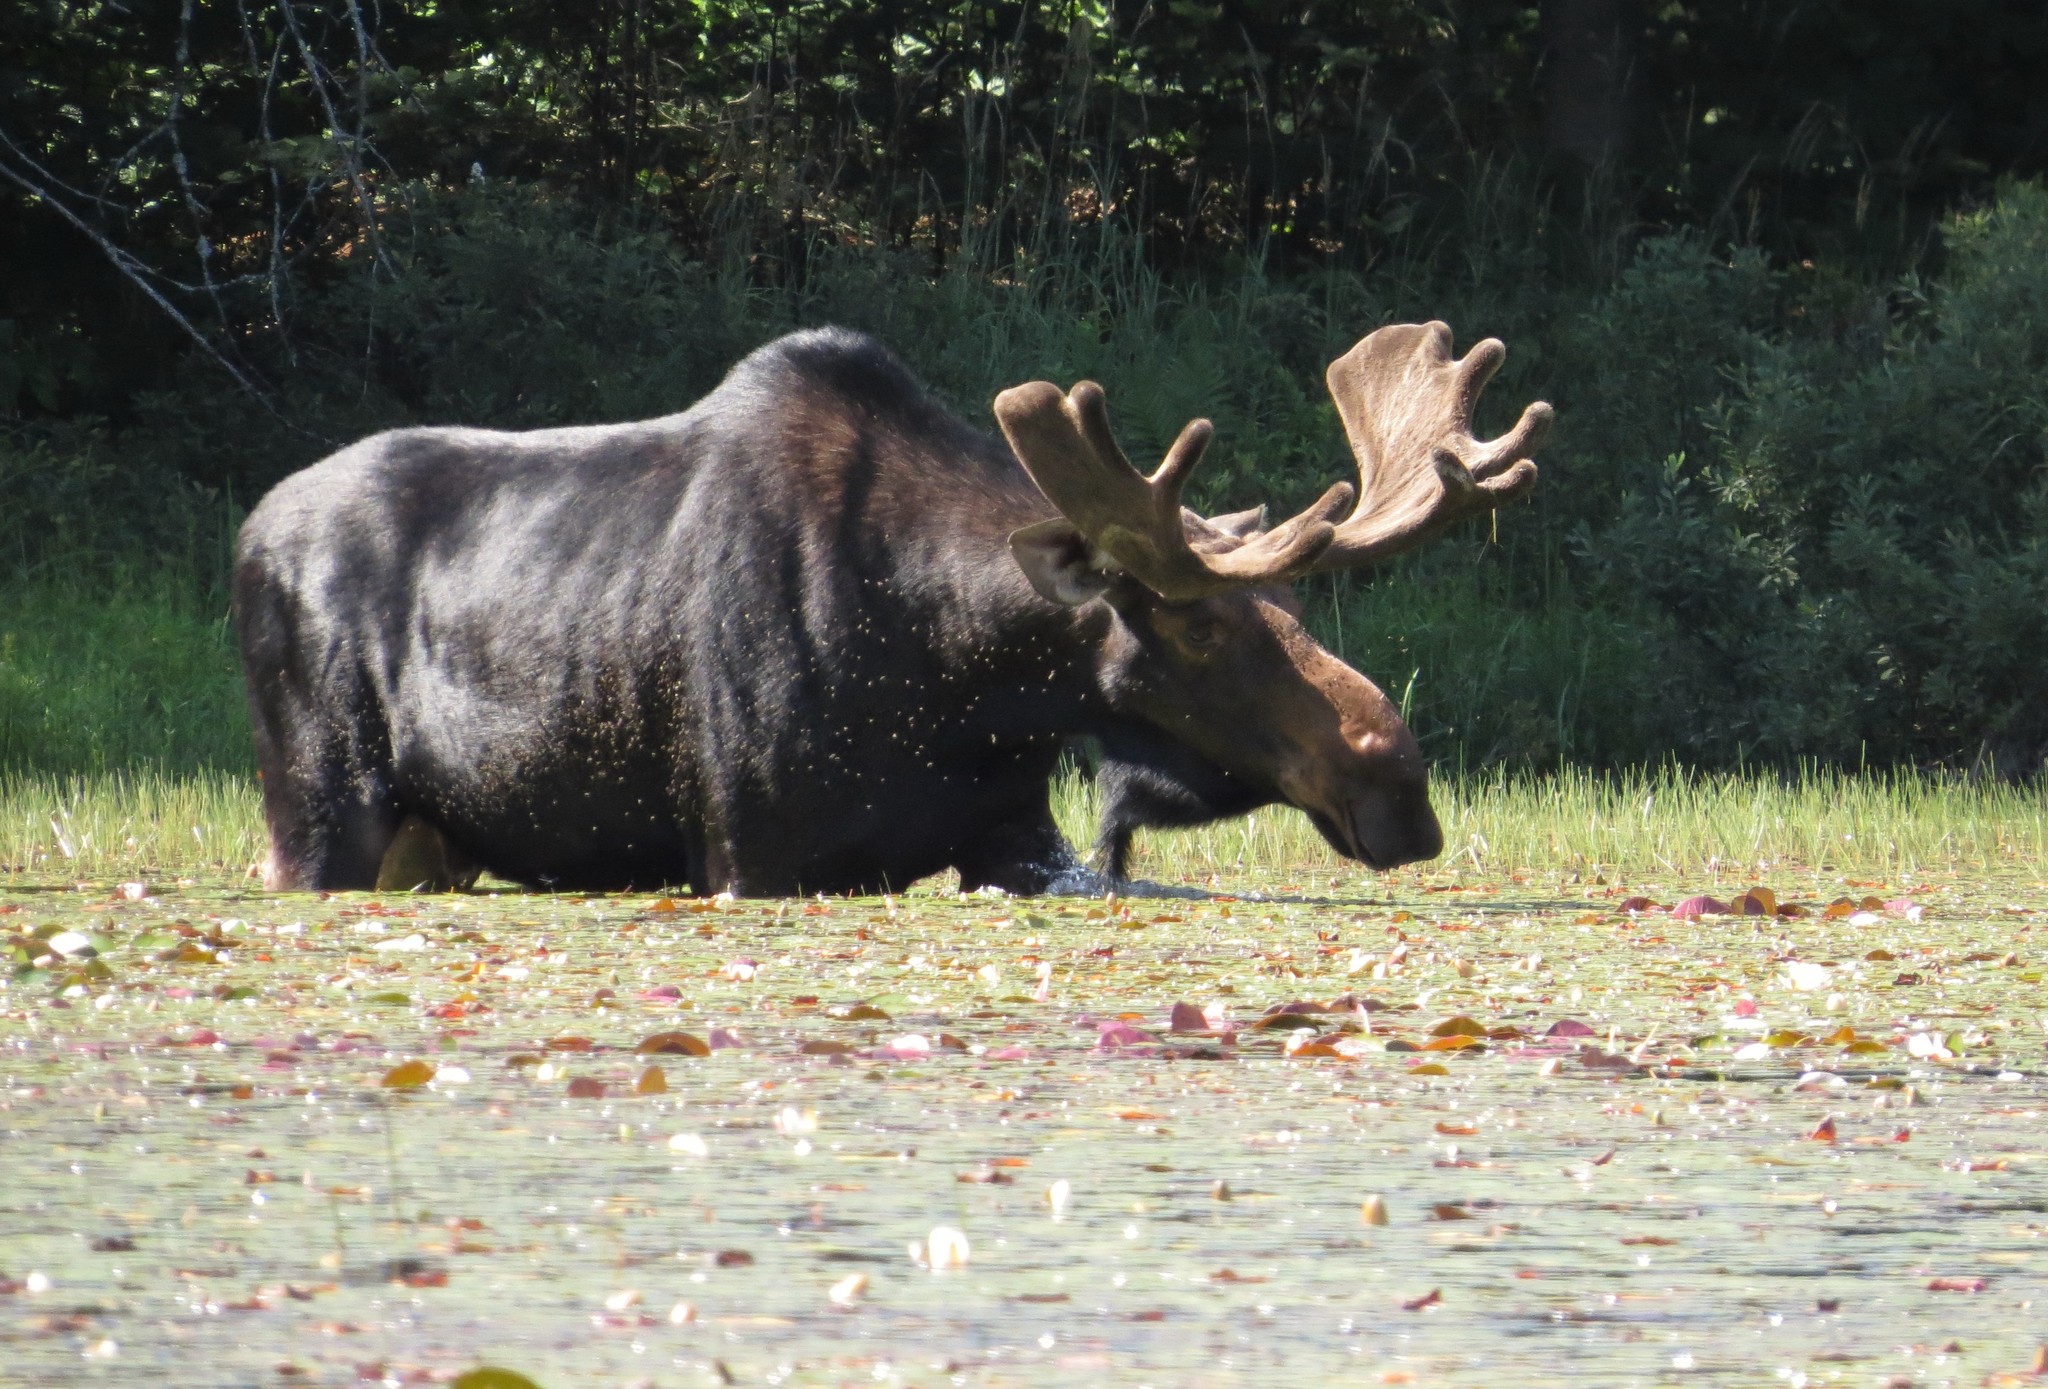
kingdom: Animalia
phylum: Chordata
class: Mammalia
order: Artiodactyla
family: Cervidae
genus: Alces
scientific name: Alces alces
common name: Moose
